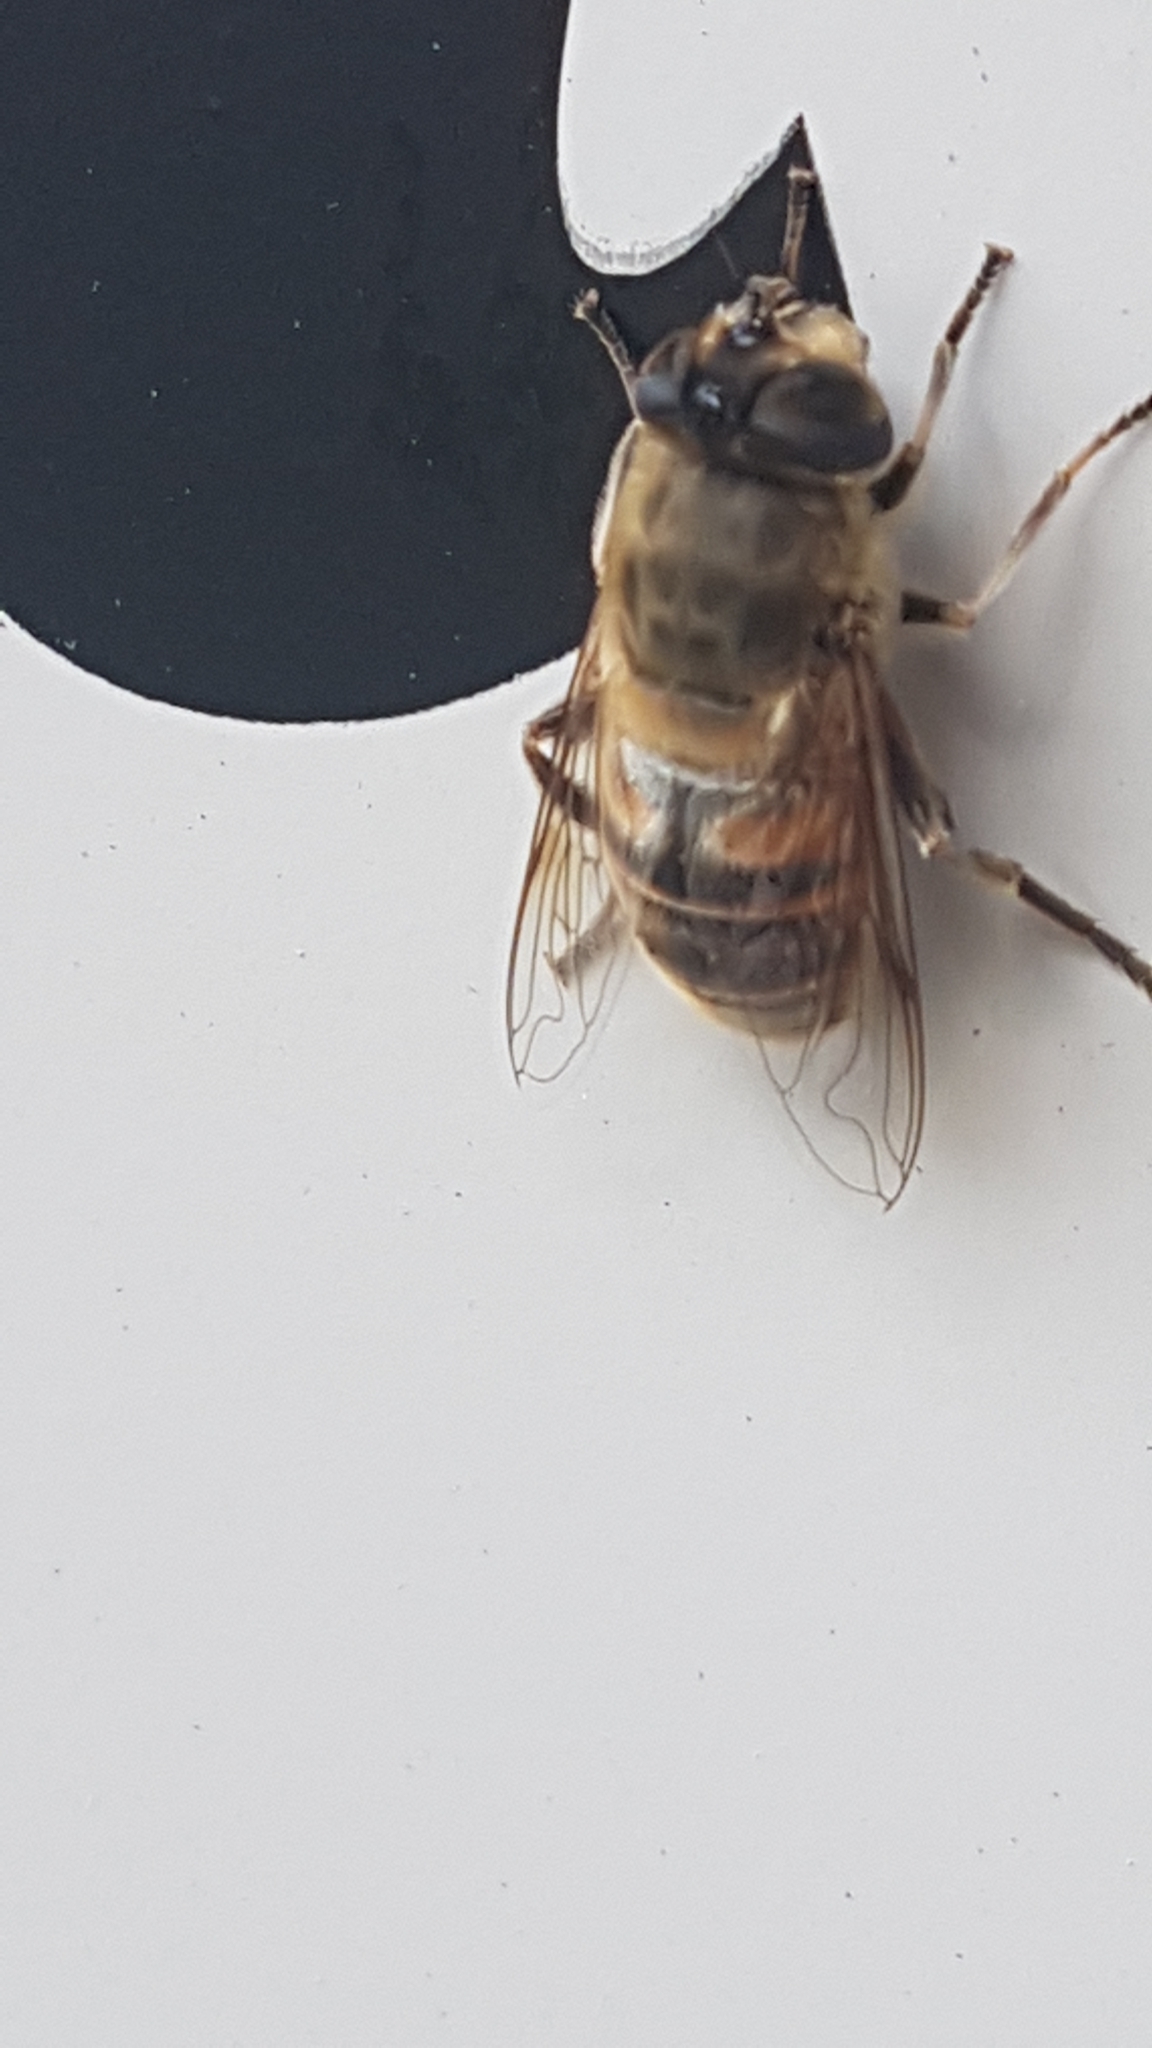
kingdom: Animalia
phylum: Arthropoda
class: Insecta
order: Diptera
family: Syrphidae
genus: Eristalis
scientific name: Eristalis tenax
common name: Drone fly
